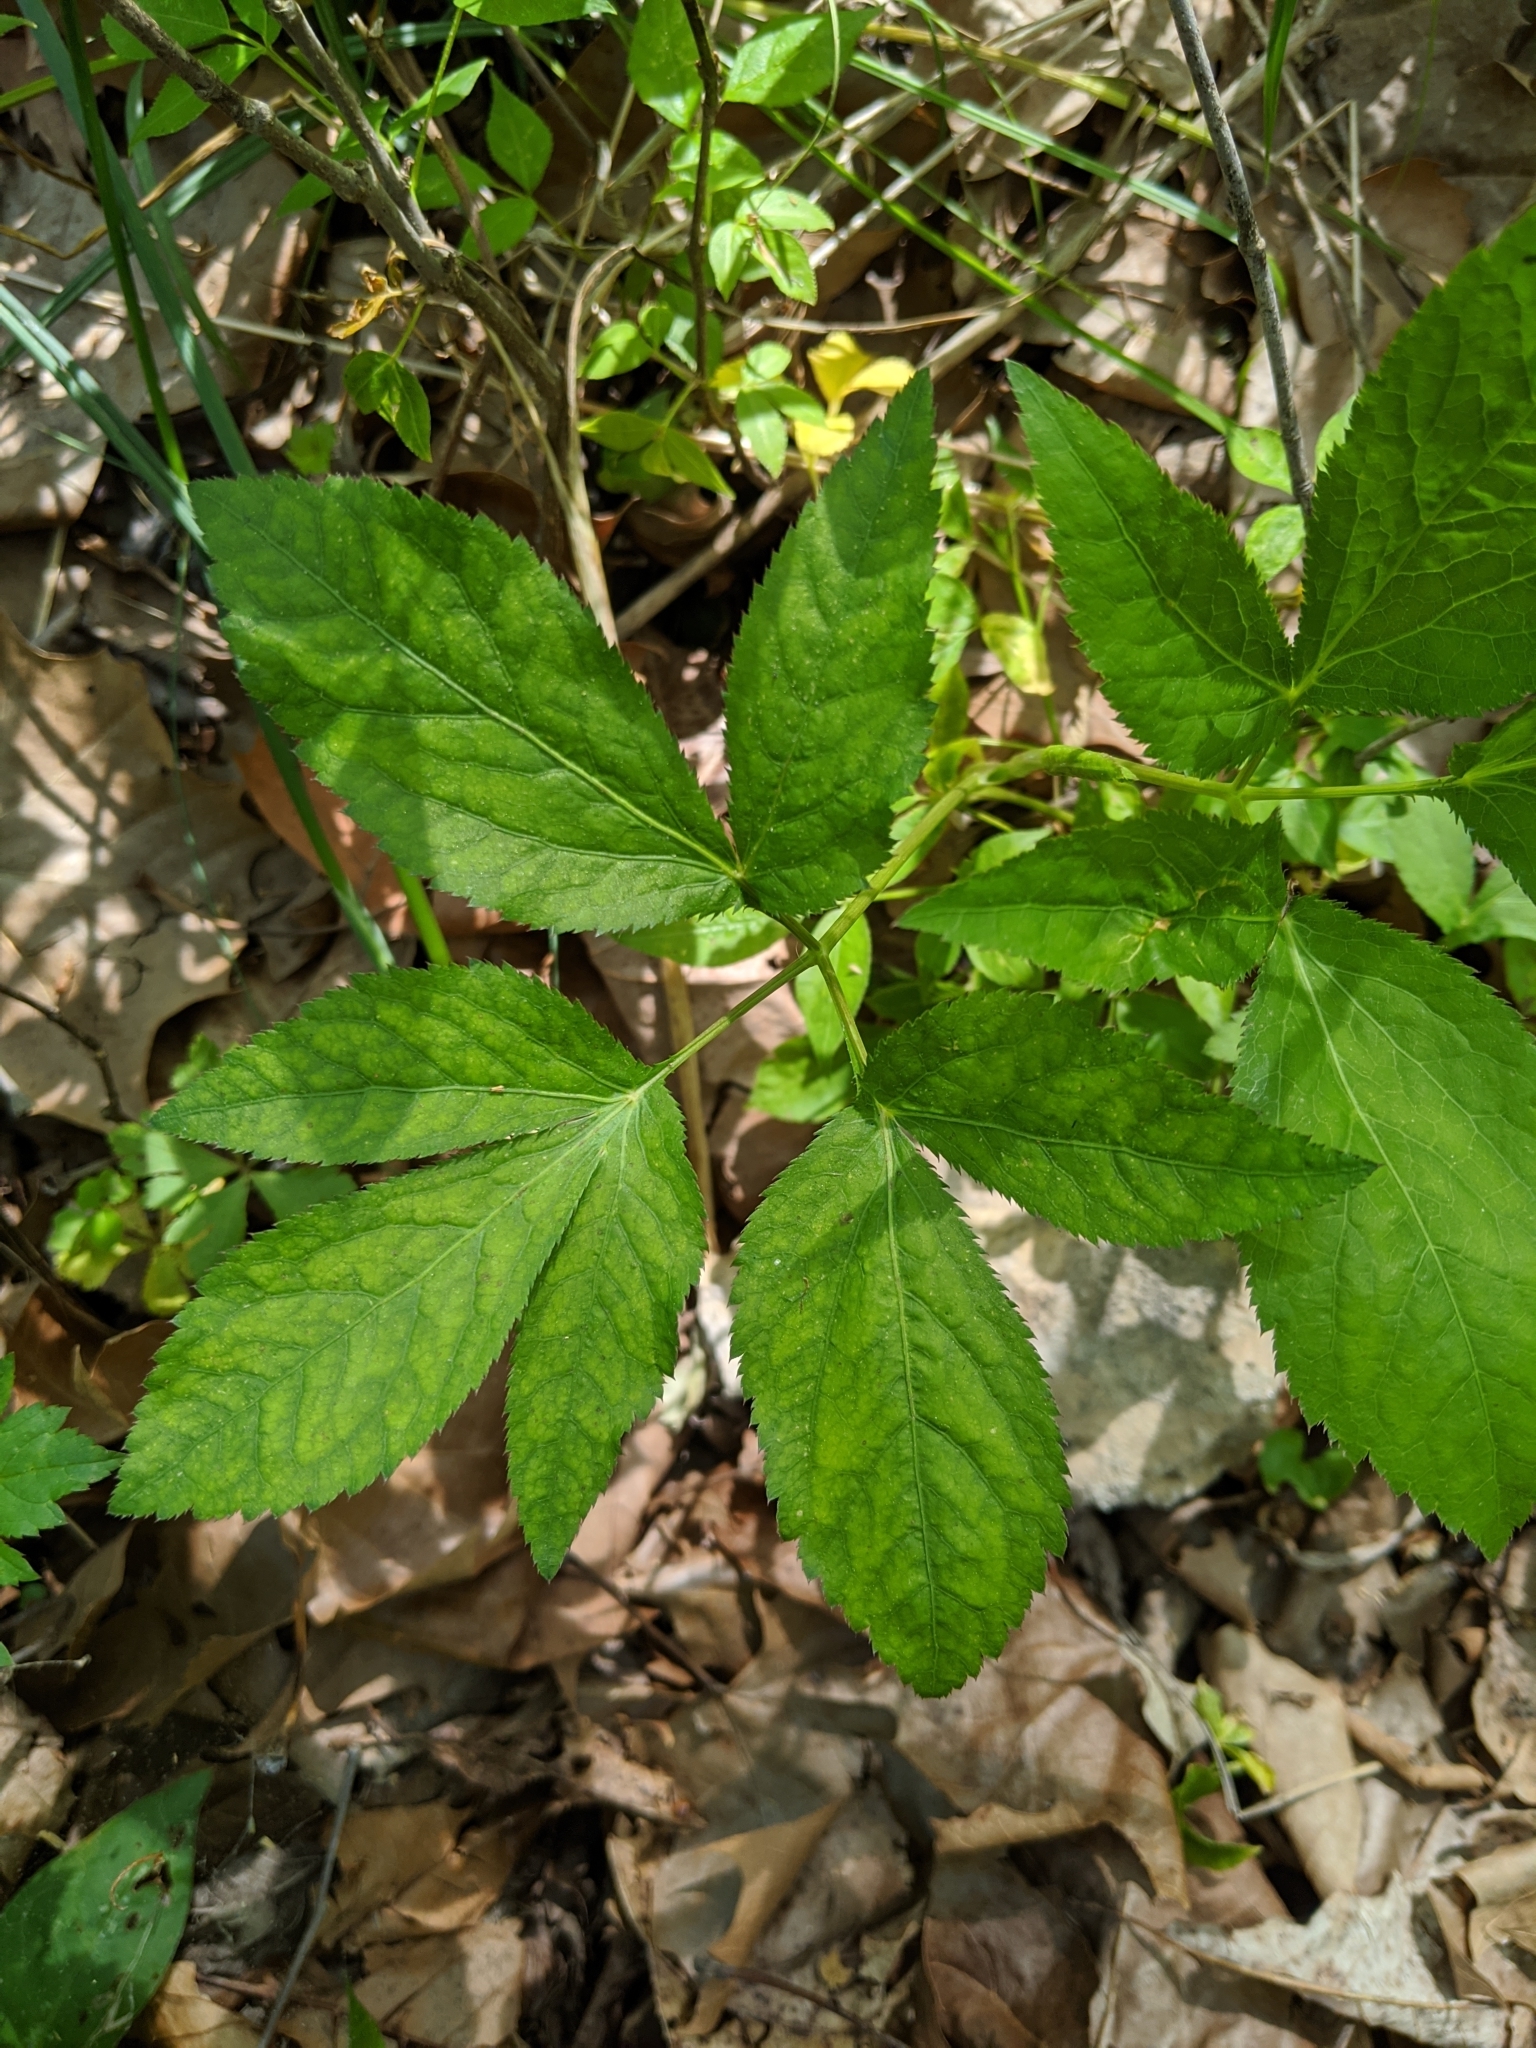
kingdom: Plantae
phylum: Tracheophyta
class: Magnoliopsida
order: Apiales
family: Apiaceae
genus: Cryptotaenia
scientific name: Cryptotaenia canadensis
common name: Honewort
